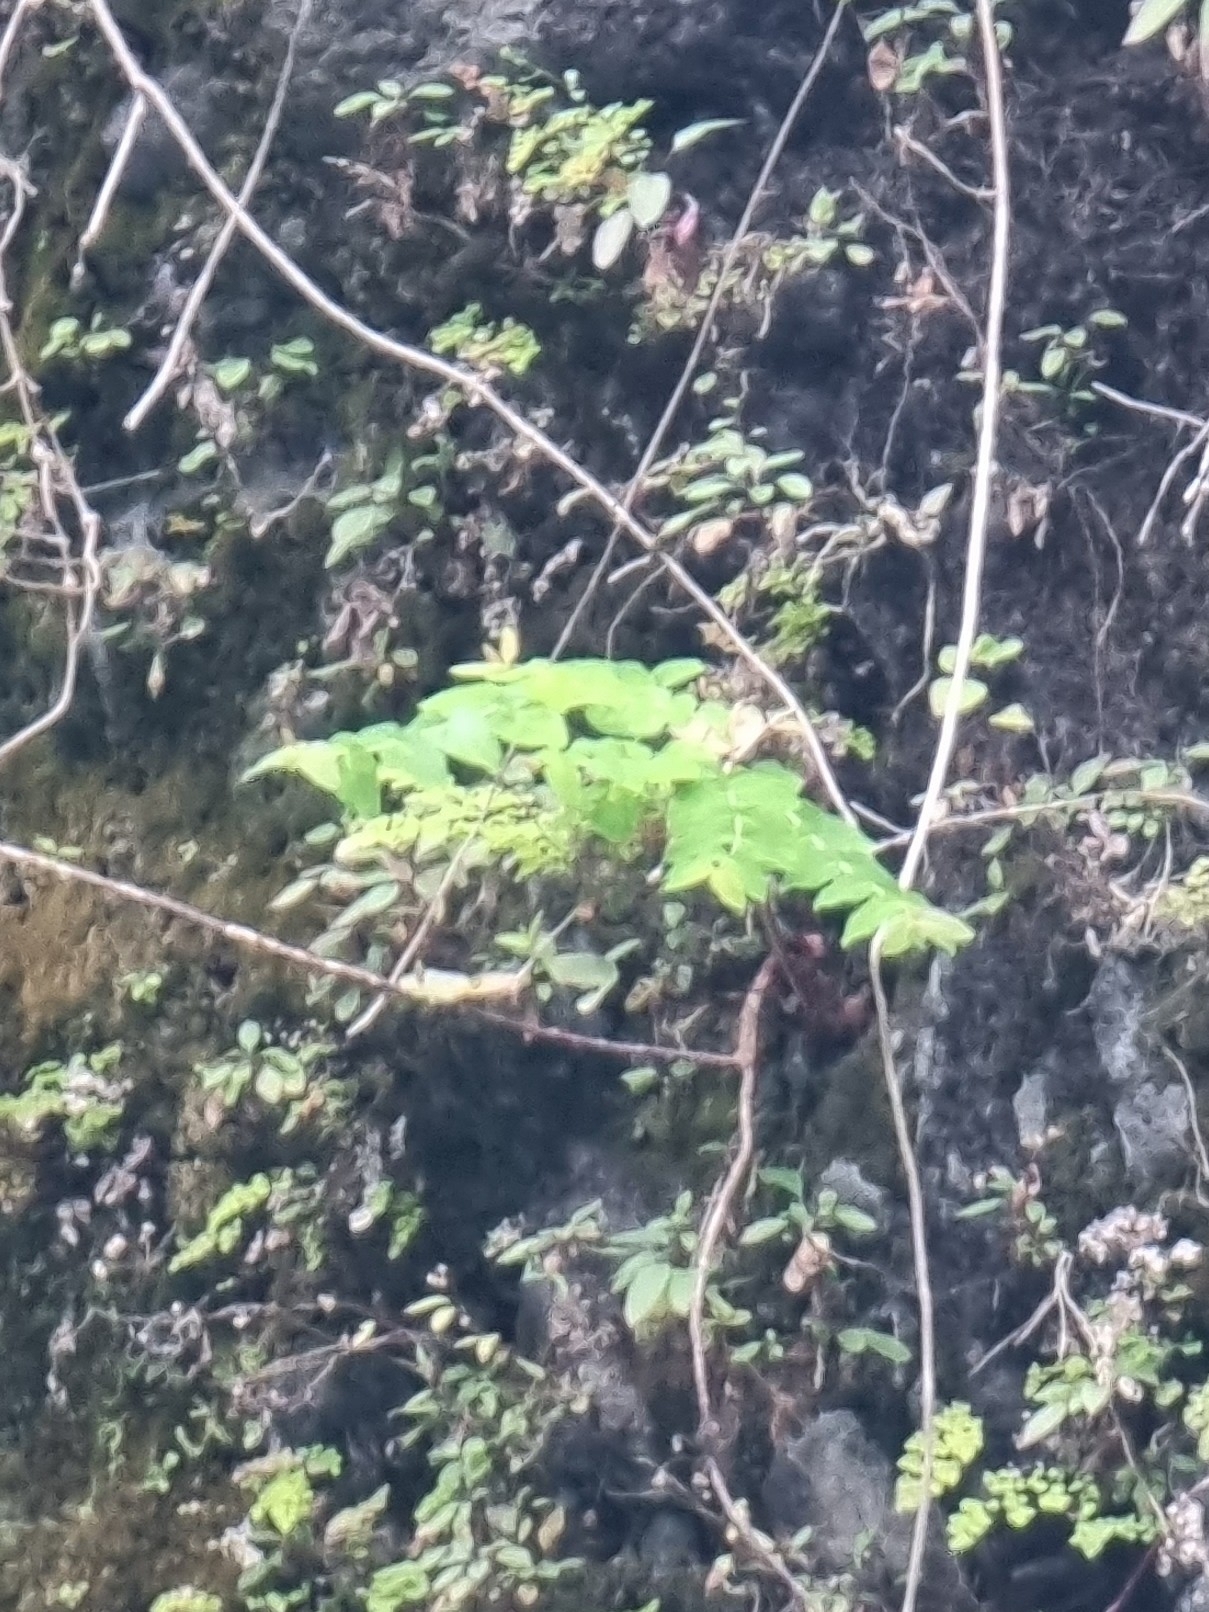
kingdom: Plantae
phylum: Tracheophyta
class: Magnoliopsida
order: Malpighiales
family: Hypericaceae
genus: Hypericum
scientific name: Hypericum grandifolium
